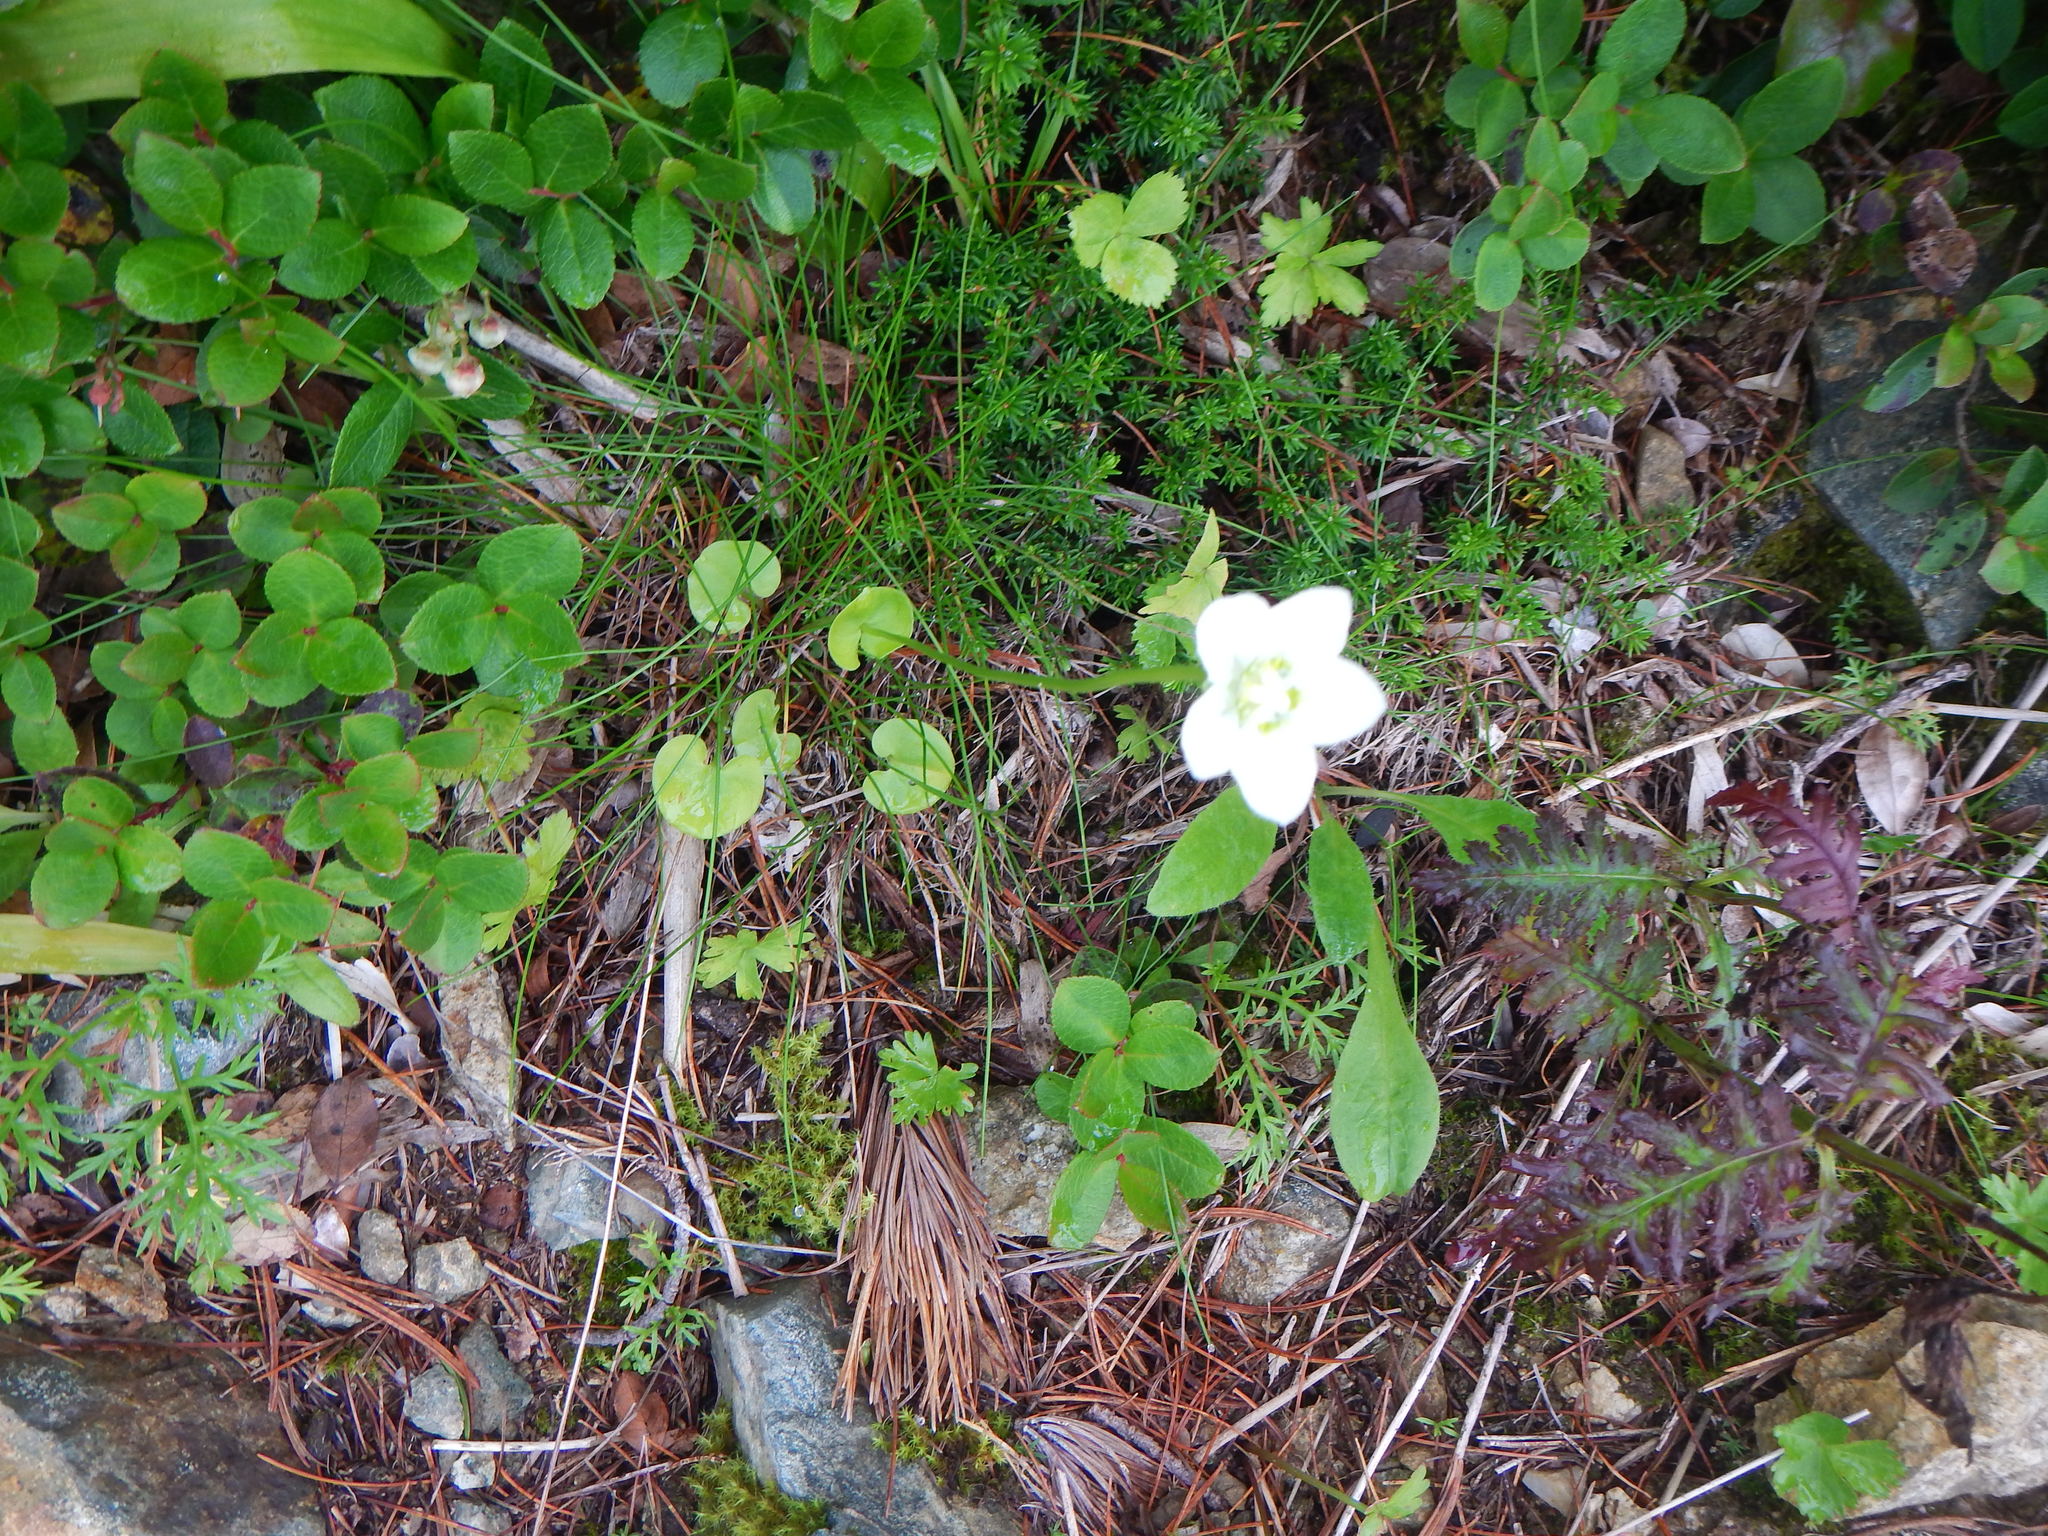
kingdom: Plantae
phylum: Tracheophyta
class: Magnoliopsida
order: Celastrales
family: Parnassiaceae
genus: Parnassia
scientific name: Parnassia palustris
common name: Grass-of-parnassus
